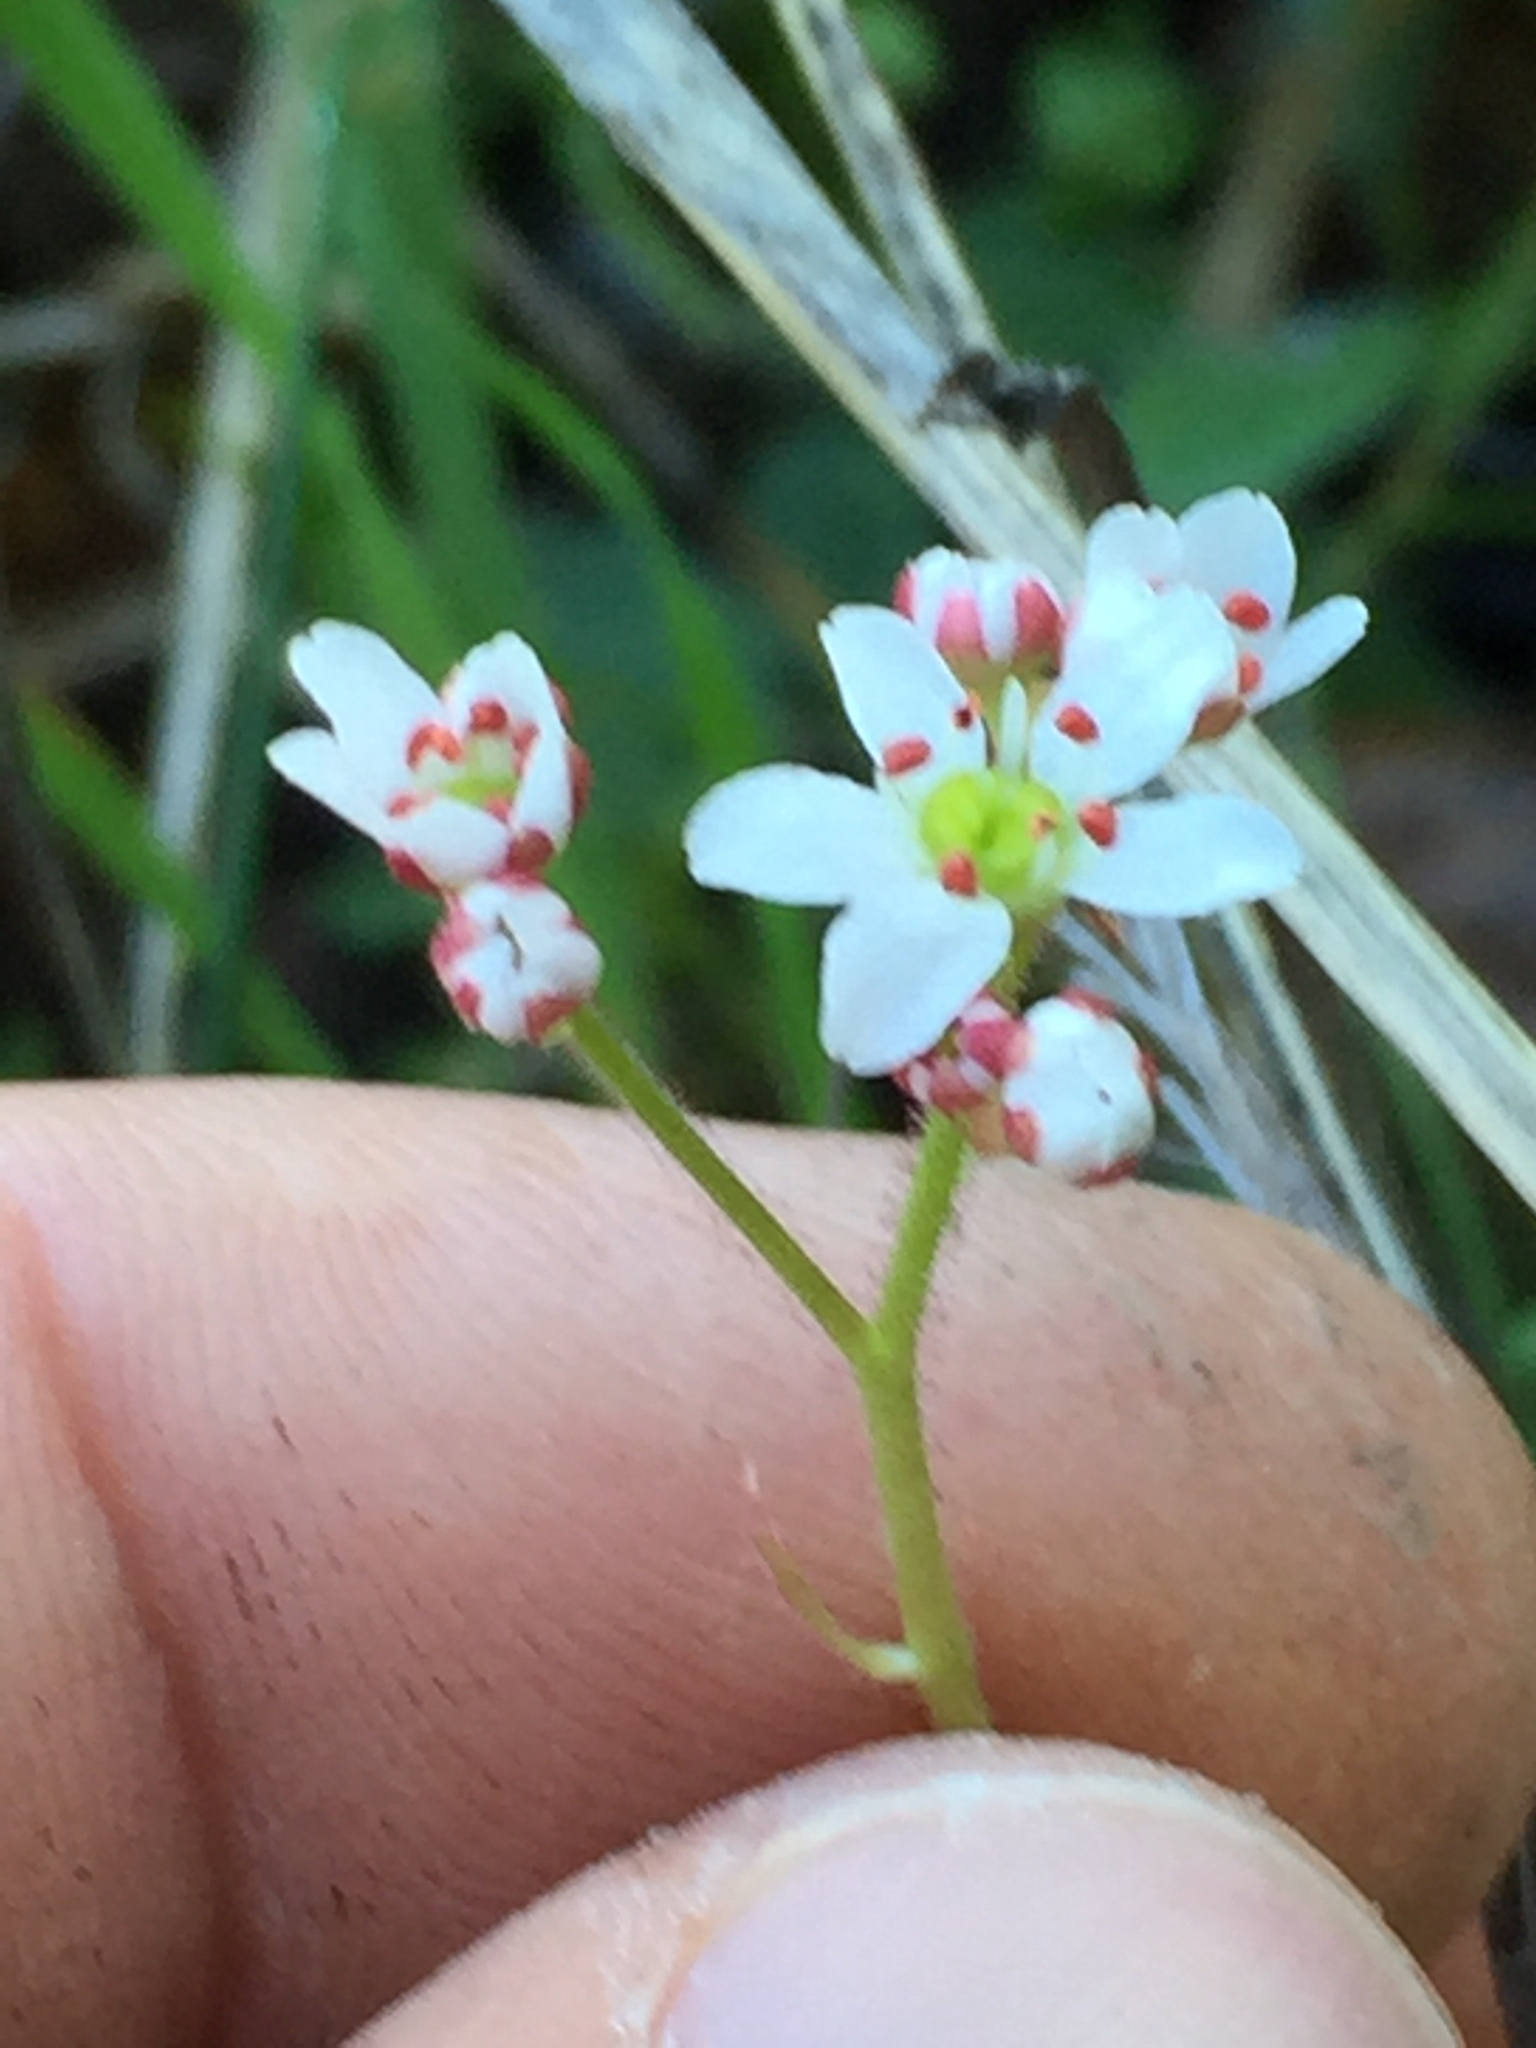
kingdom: Plantae
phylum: Tracheophyta
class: Magnoliopsida
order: Saxifragales
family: Saxifragaceae
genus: Micranthes
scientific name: Micranthes californica
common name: California saxifrage
